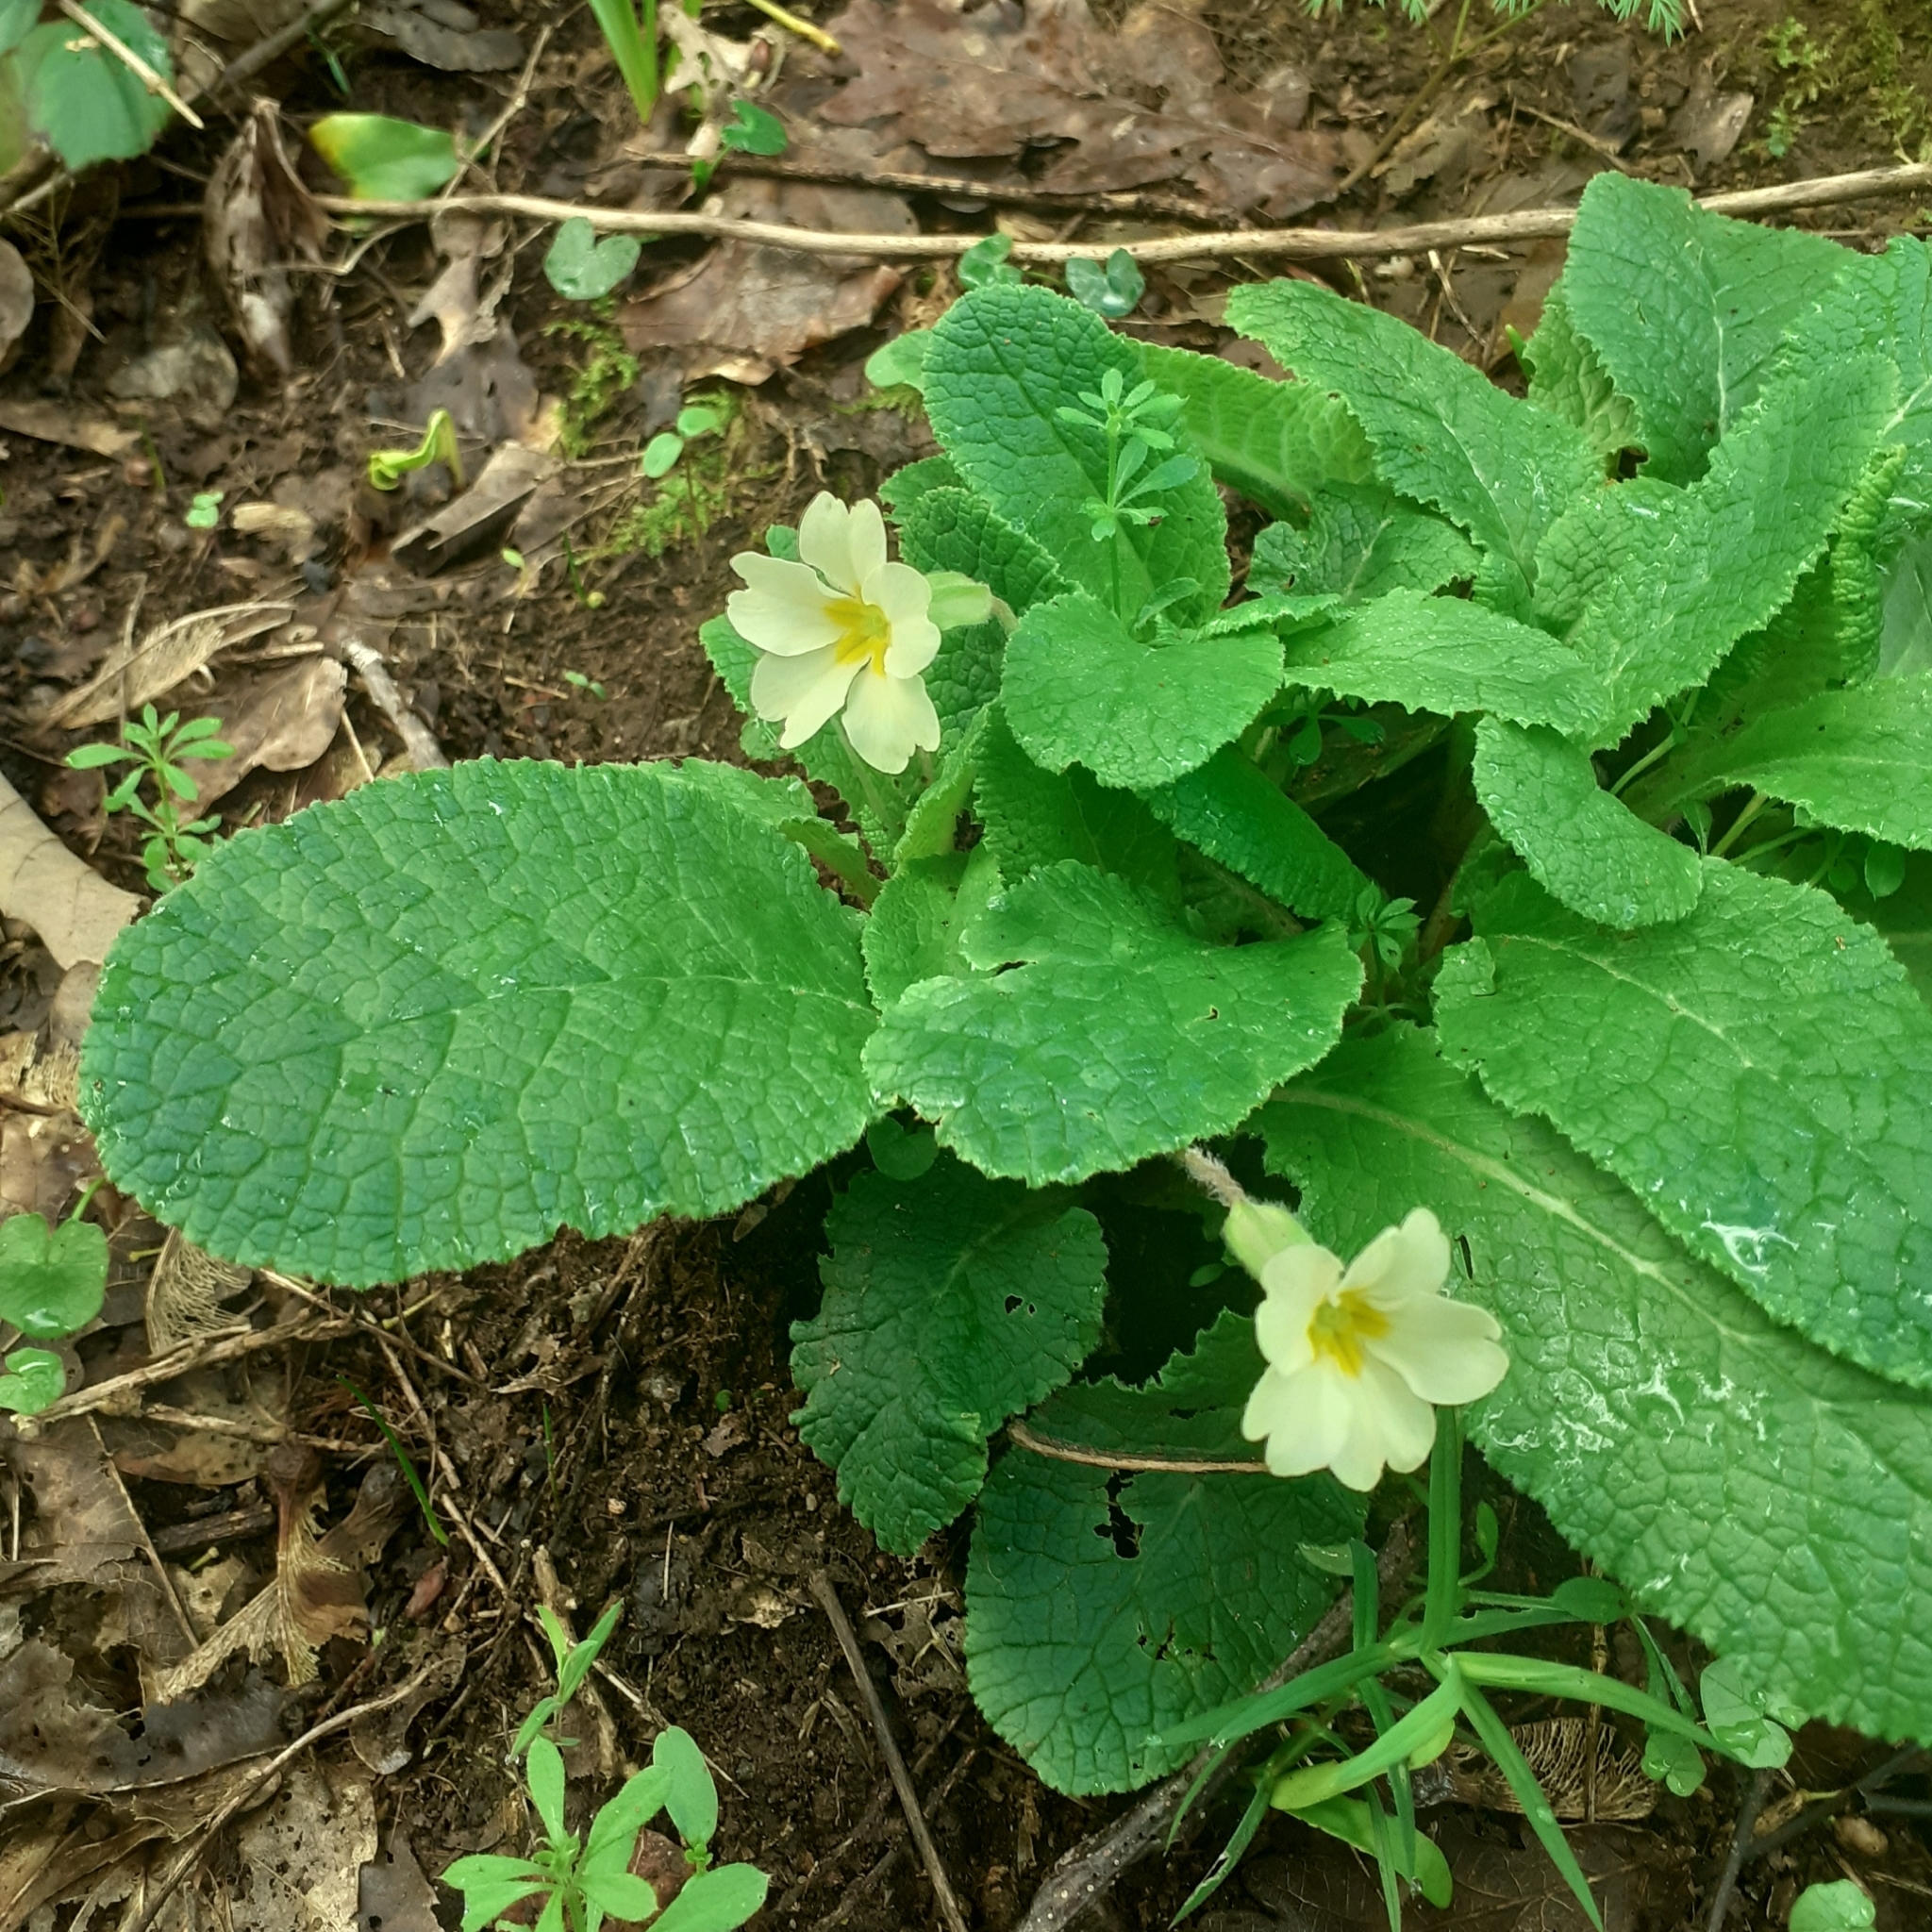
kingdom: Plantae
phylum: Tracheophyta
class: Magnoliopsida
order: Ericales
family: Primulaceae
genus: Primula
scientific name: Primula vulgaris
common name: Primrose
